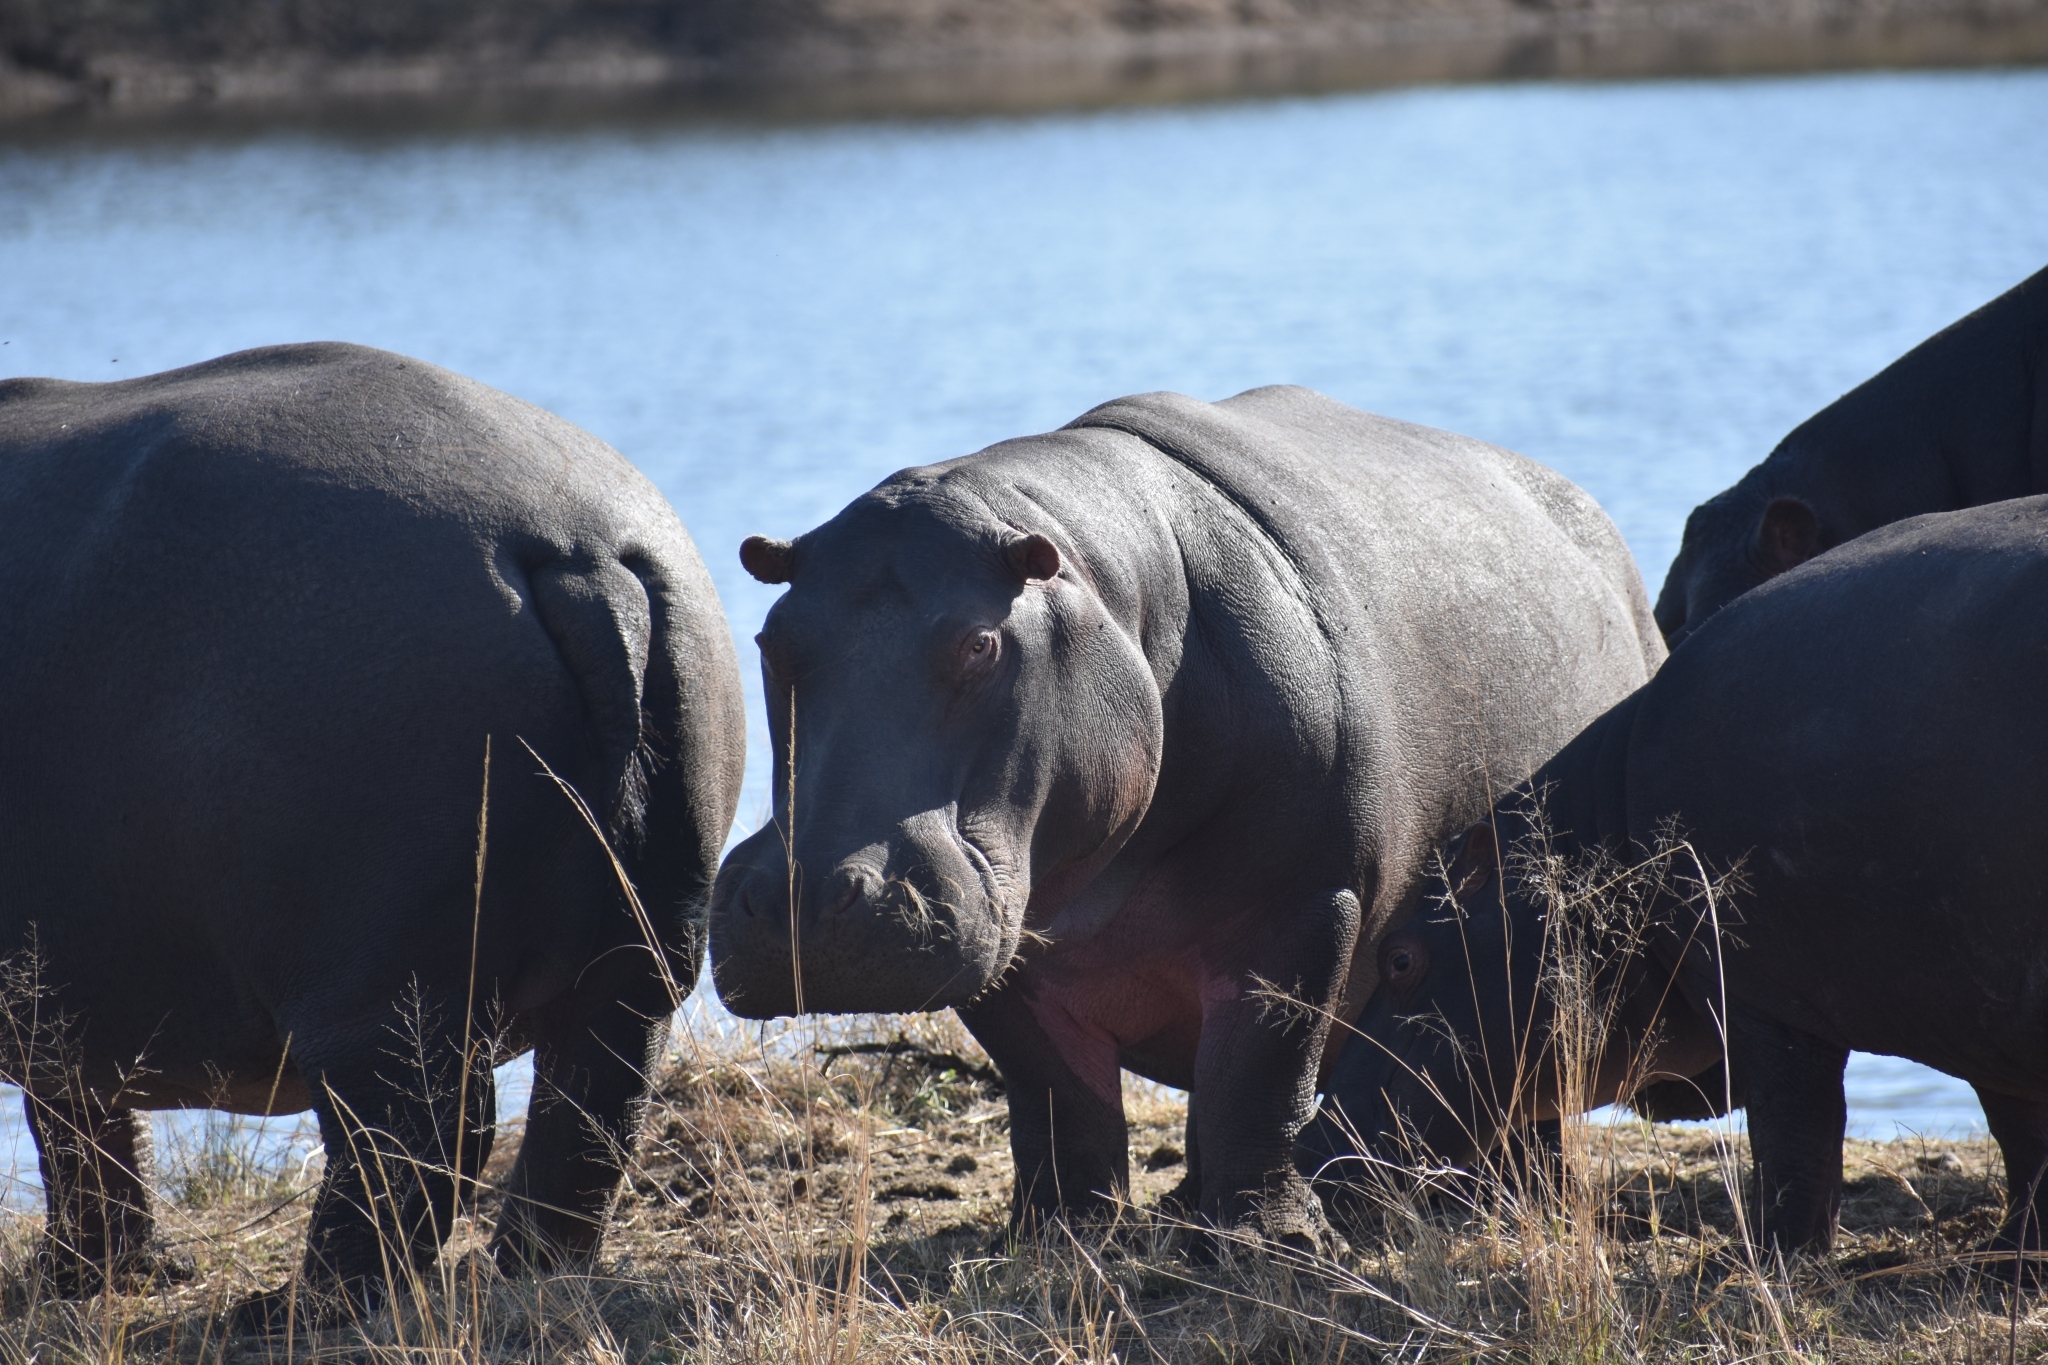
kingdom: Animalia
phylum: Chordata
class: Mammalia
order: Artiodactyla
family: Hippopotamidae
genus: Hippopotamus
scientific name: Hippopotamus amphibius
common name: Common hippopotamus
